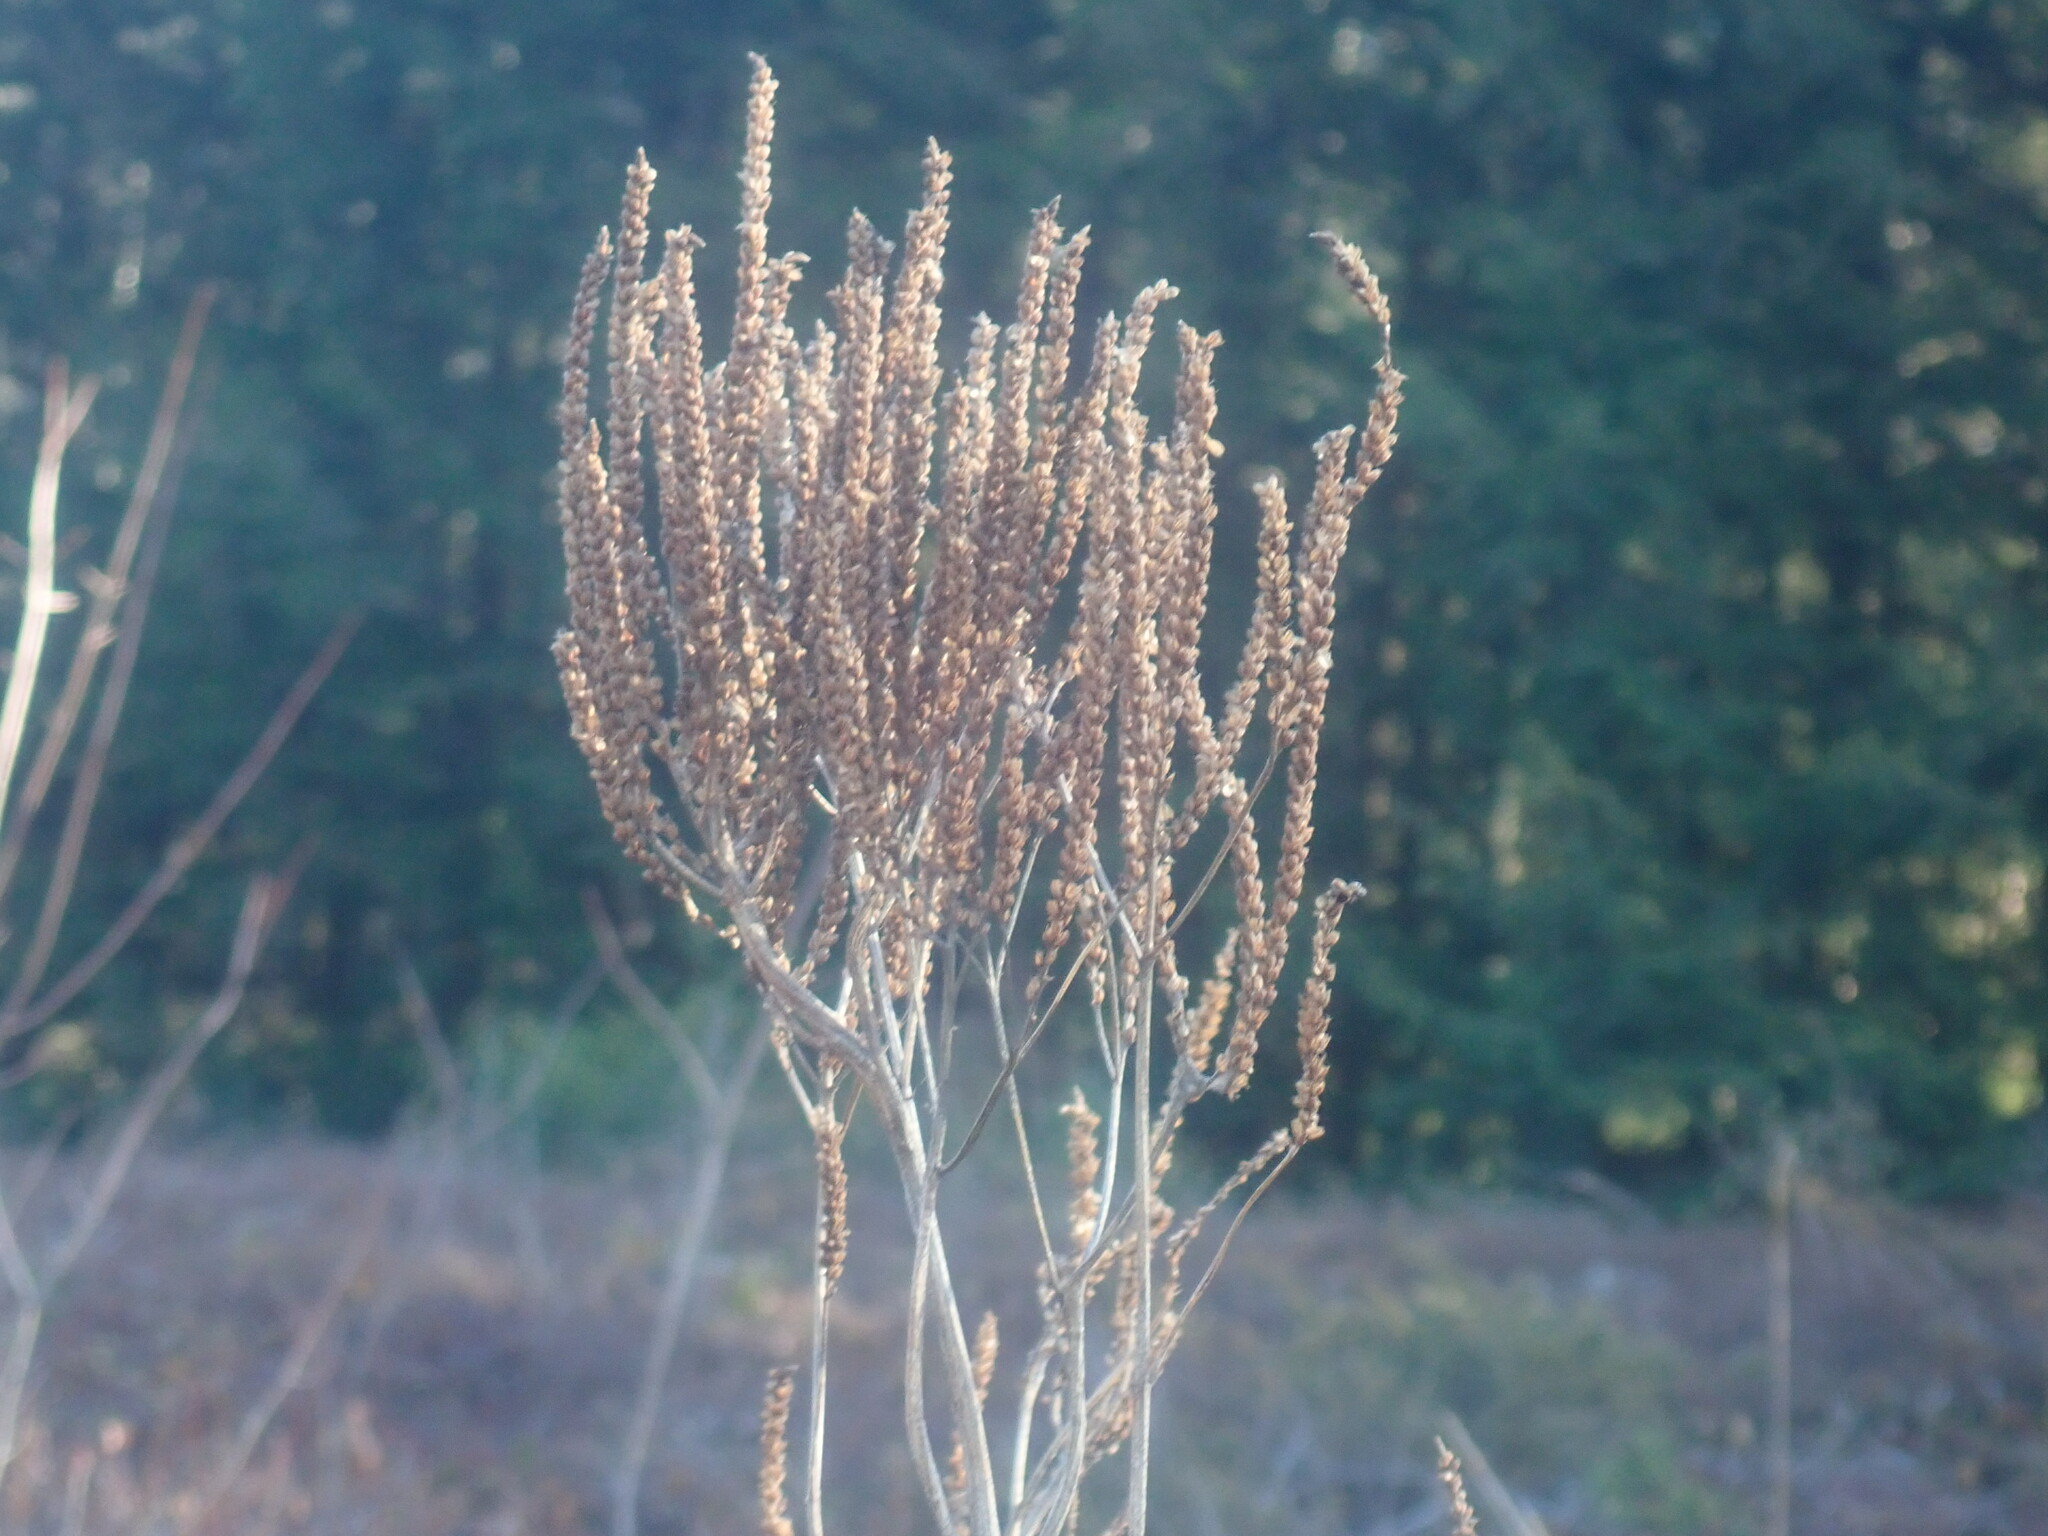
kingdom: Plantae
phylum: Tracheophyta
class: Magnoliopsida
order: Lamiales
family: Verbenaceae
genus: Verbena
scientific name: Verbena hastata
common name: American blue vervain
